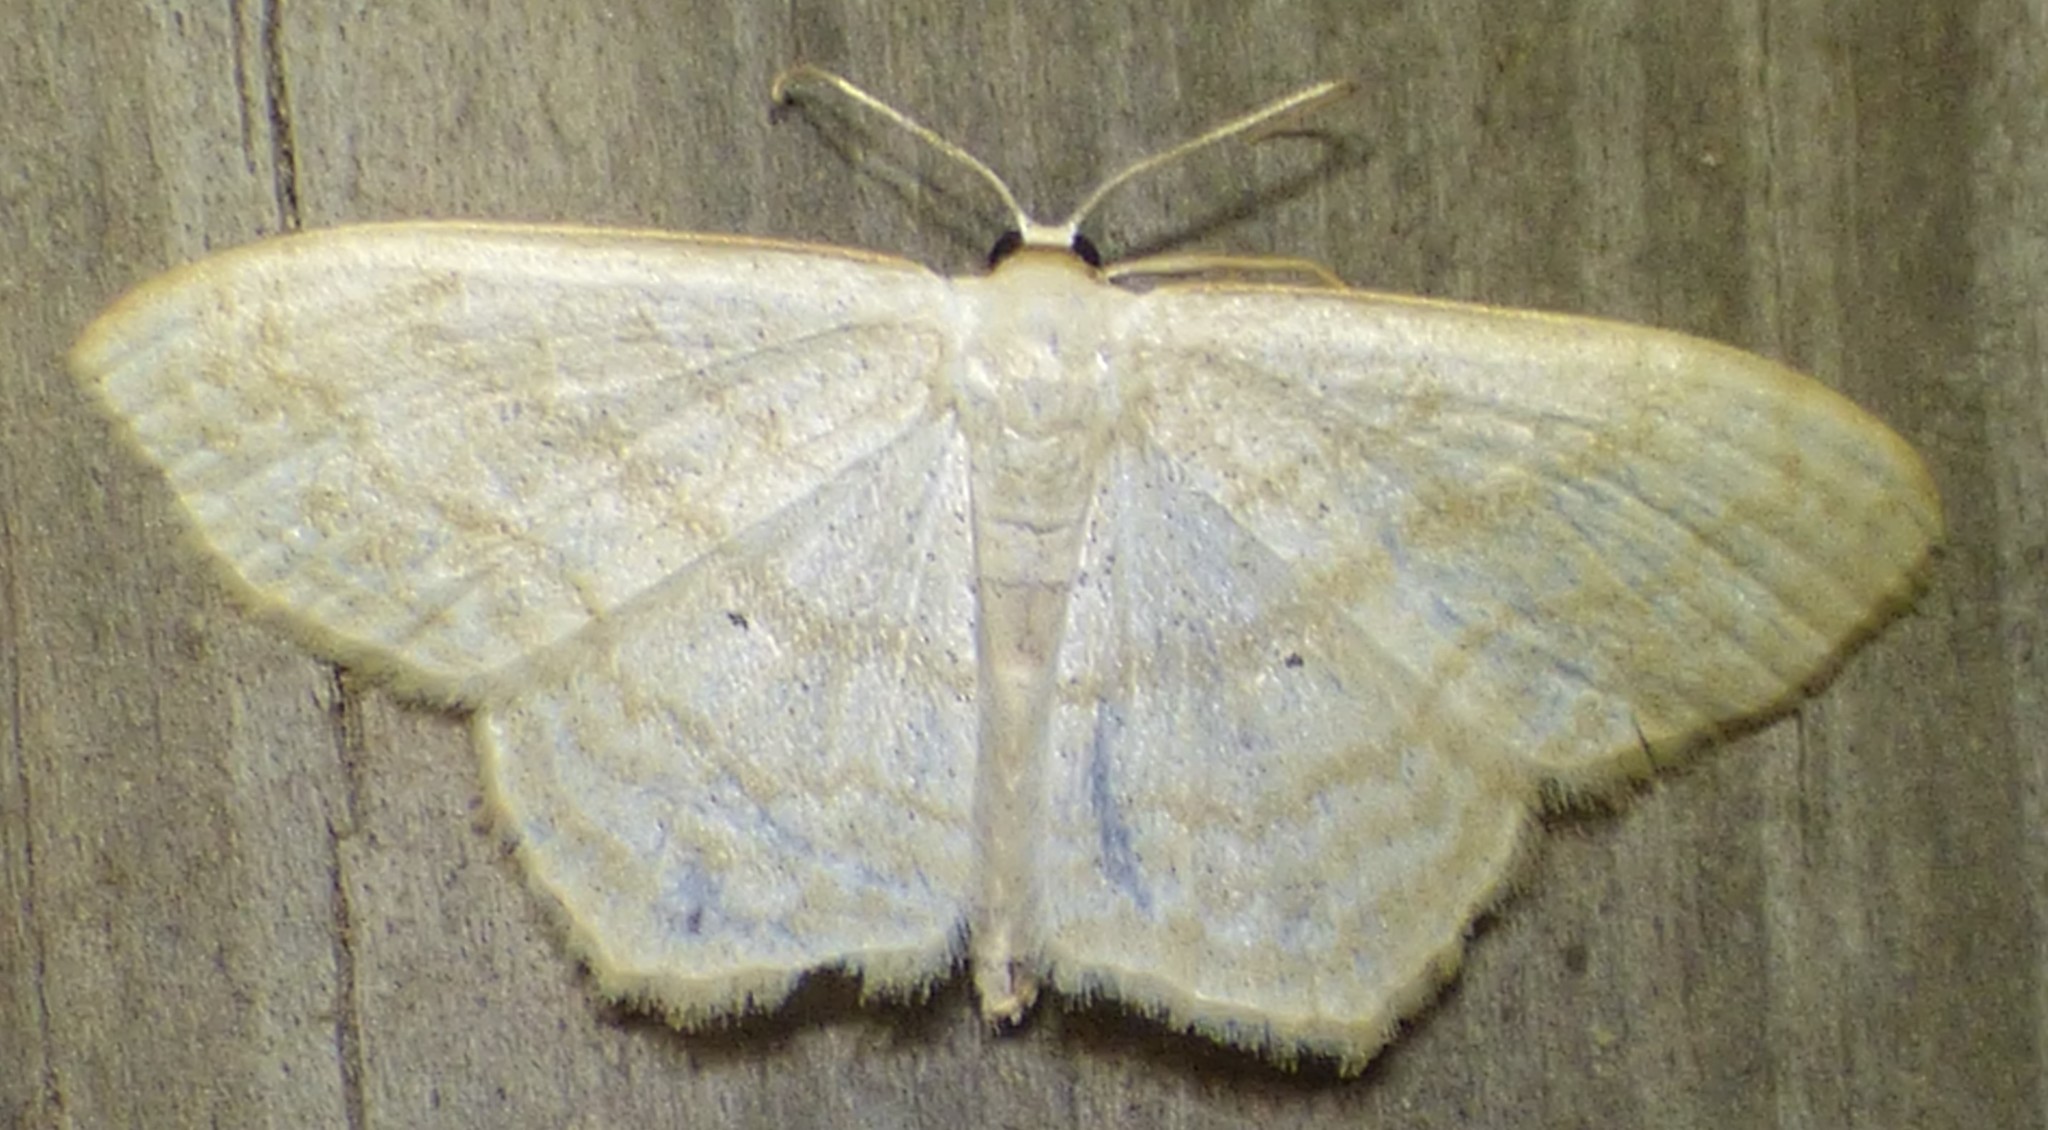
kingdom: Animalia
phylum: Arthropoda
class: Insecta
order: Lepidoptera
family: Geometridae
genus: Scopula
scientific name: Scopula limboundata
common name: Large lace border
